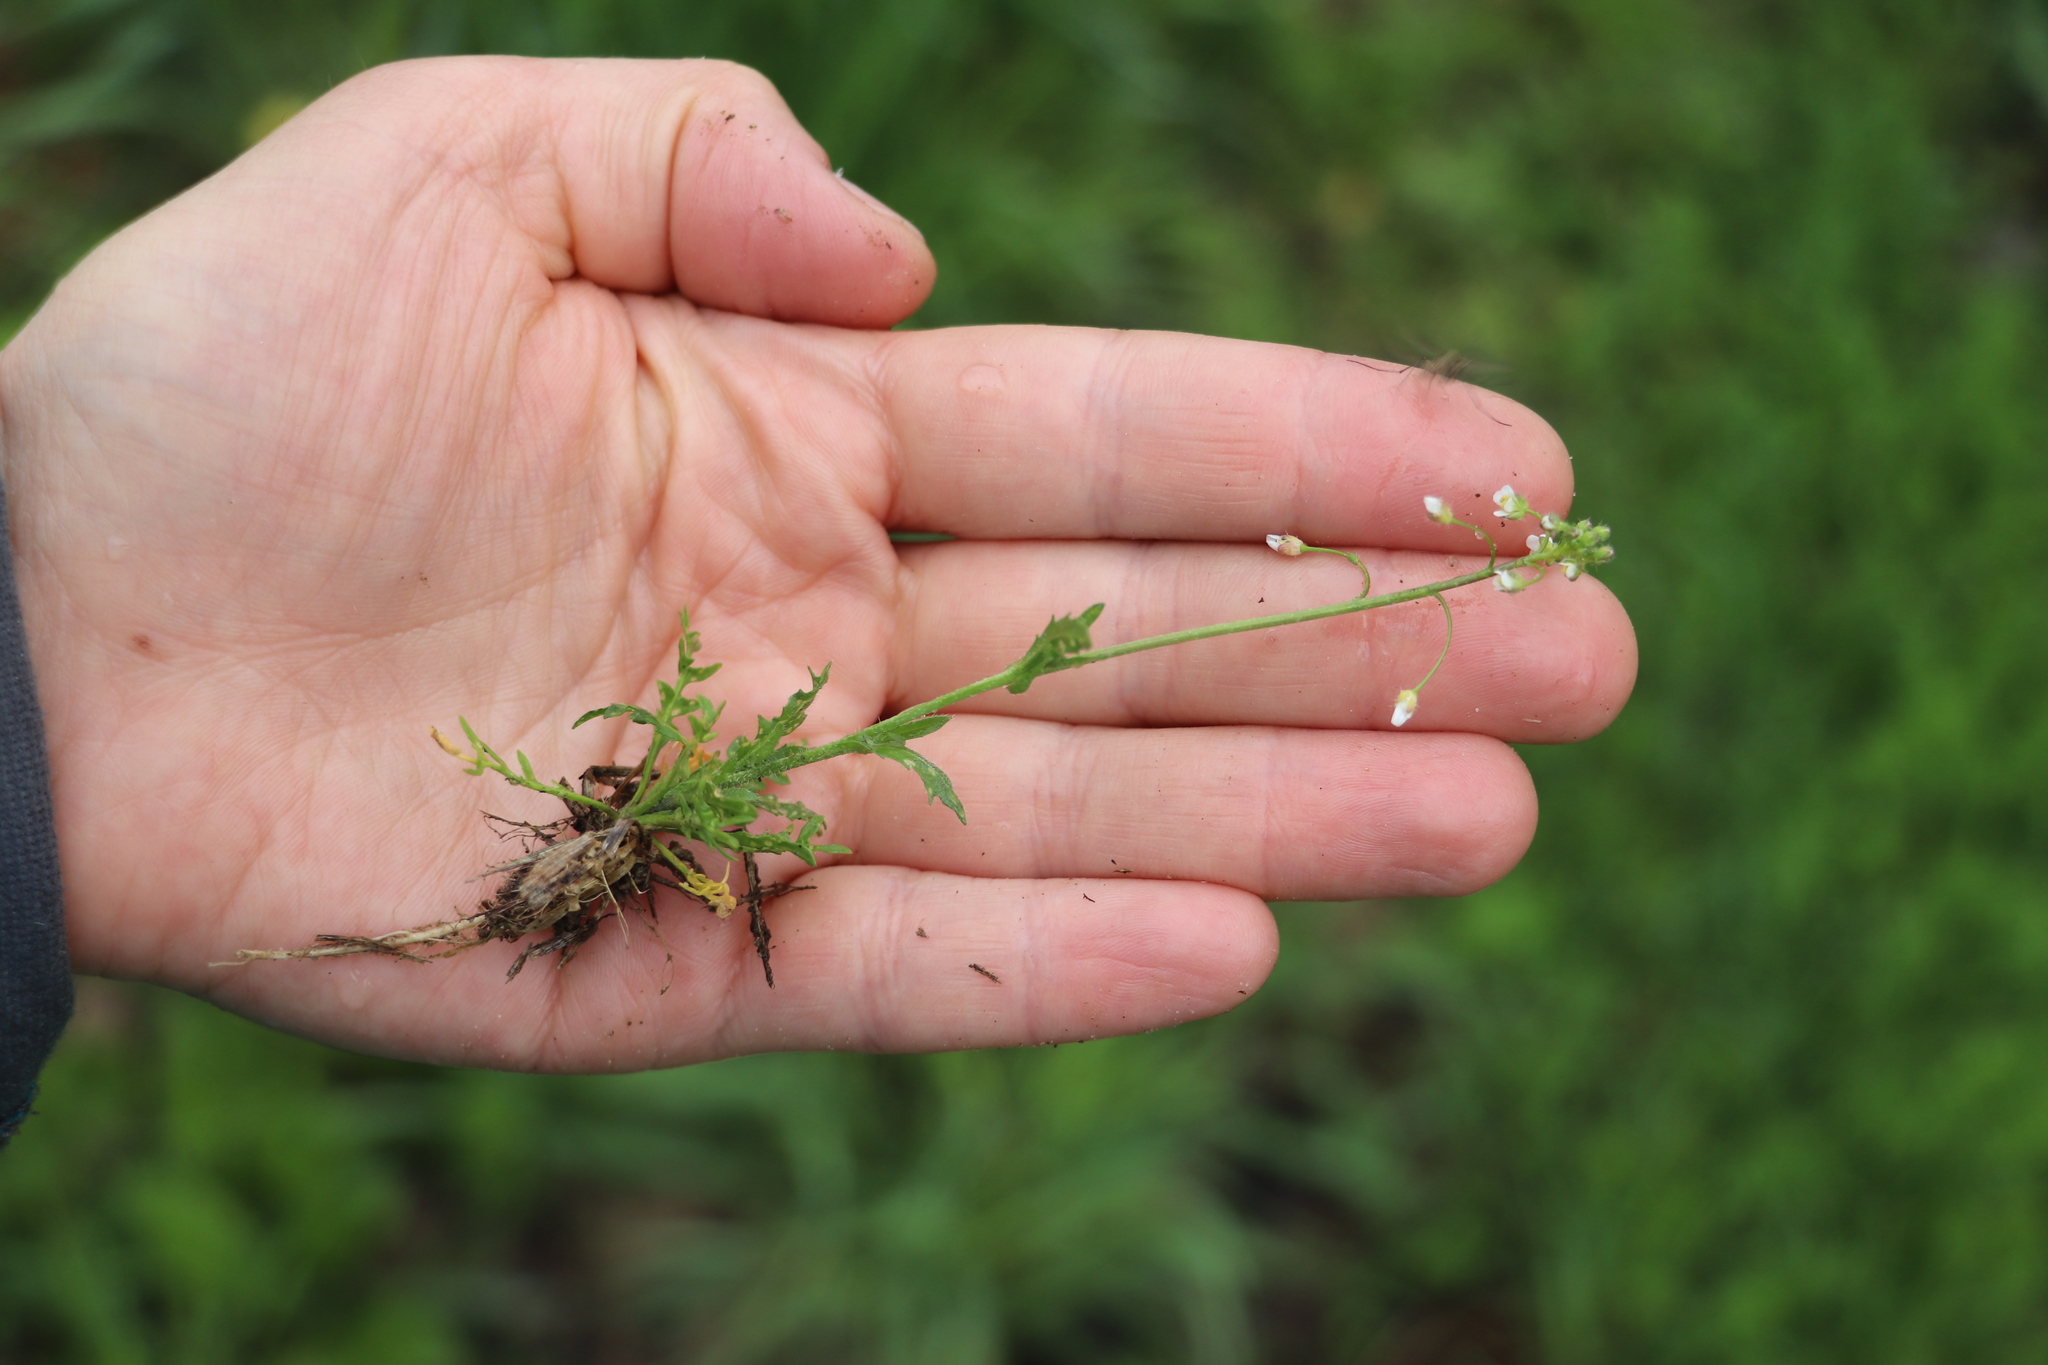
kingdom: Plantae
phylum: Tracheophyta
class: Magnoliopsida
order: Brassicales
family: Brassicaceae
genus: Capsella
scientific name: Capsella bursa-pastoris
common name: Shepherd's purse
